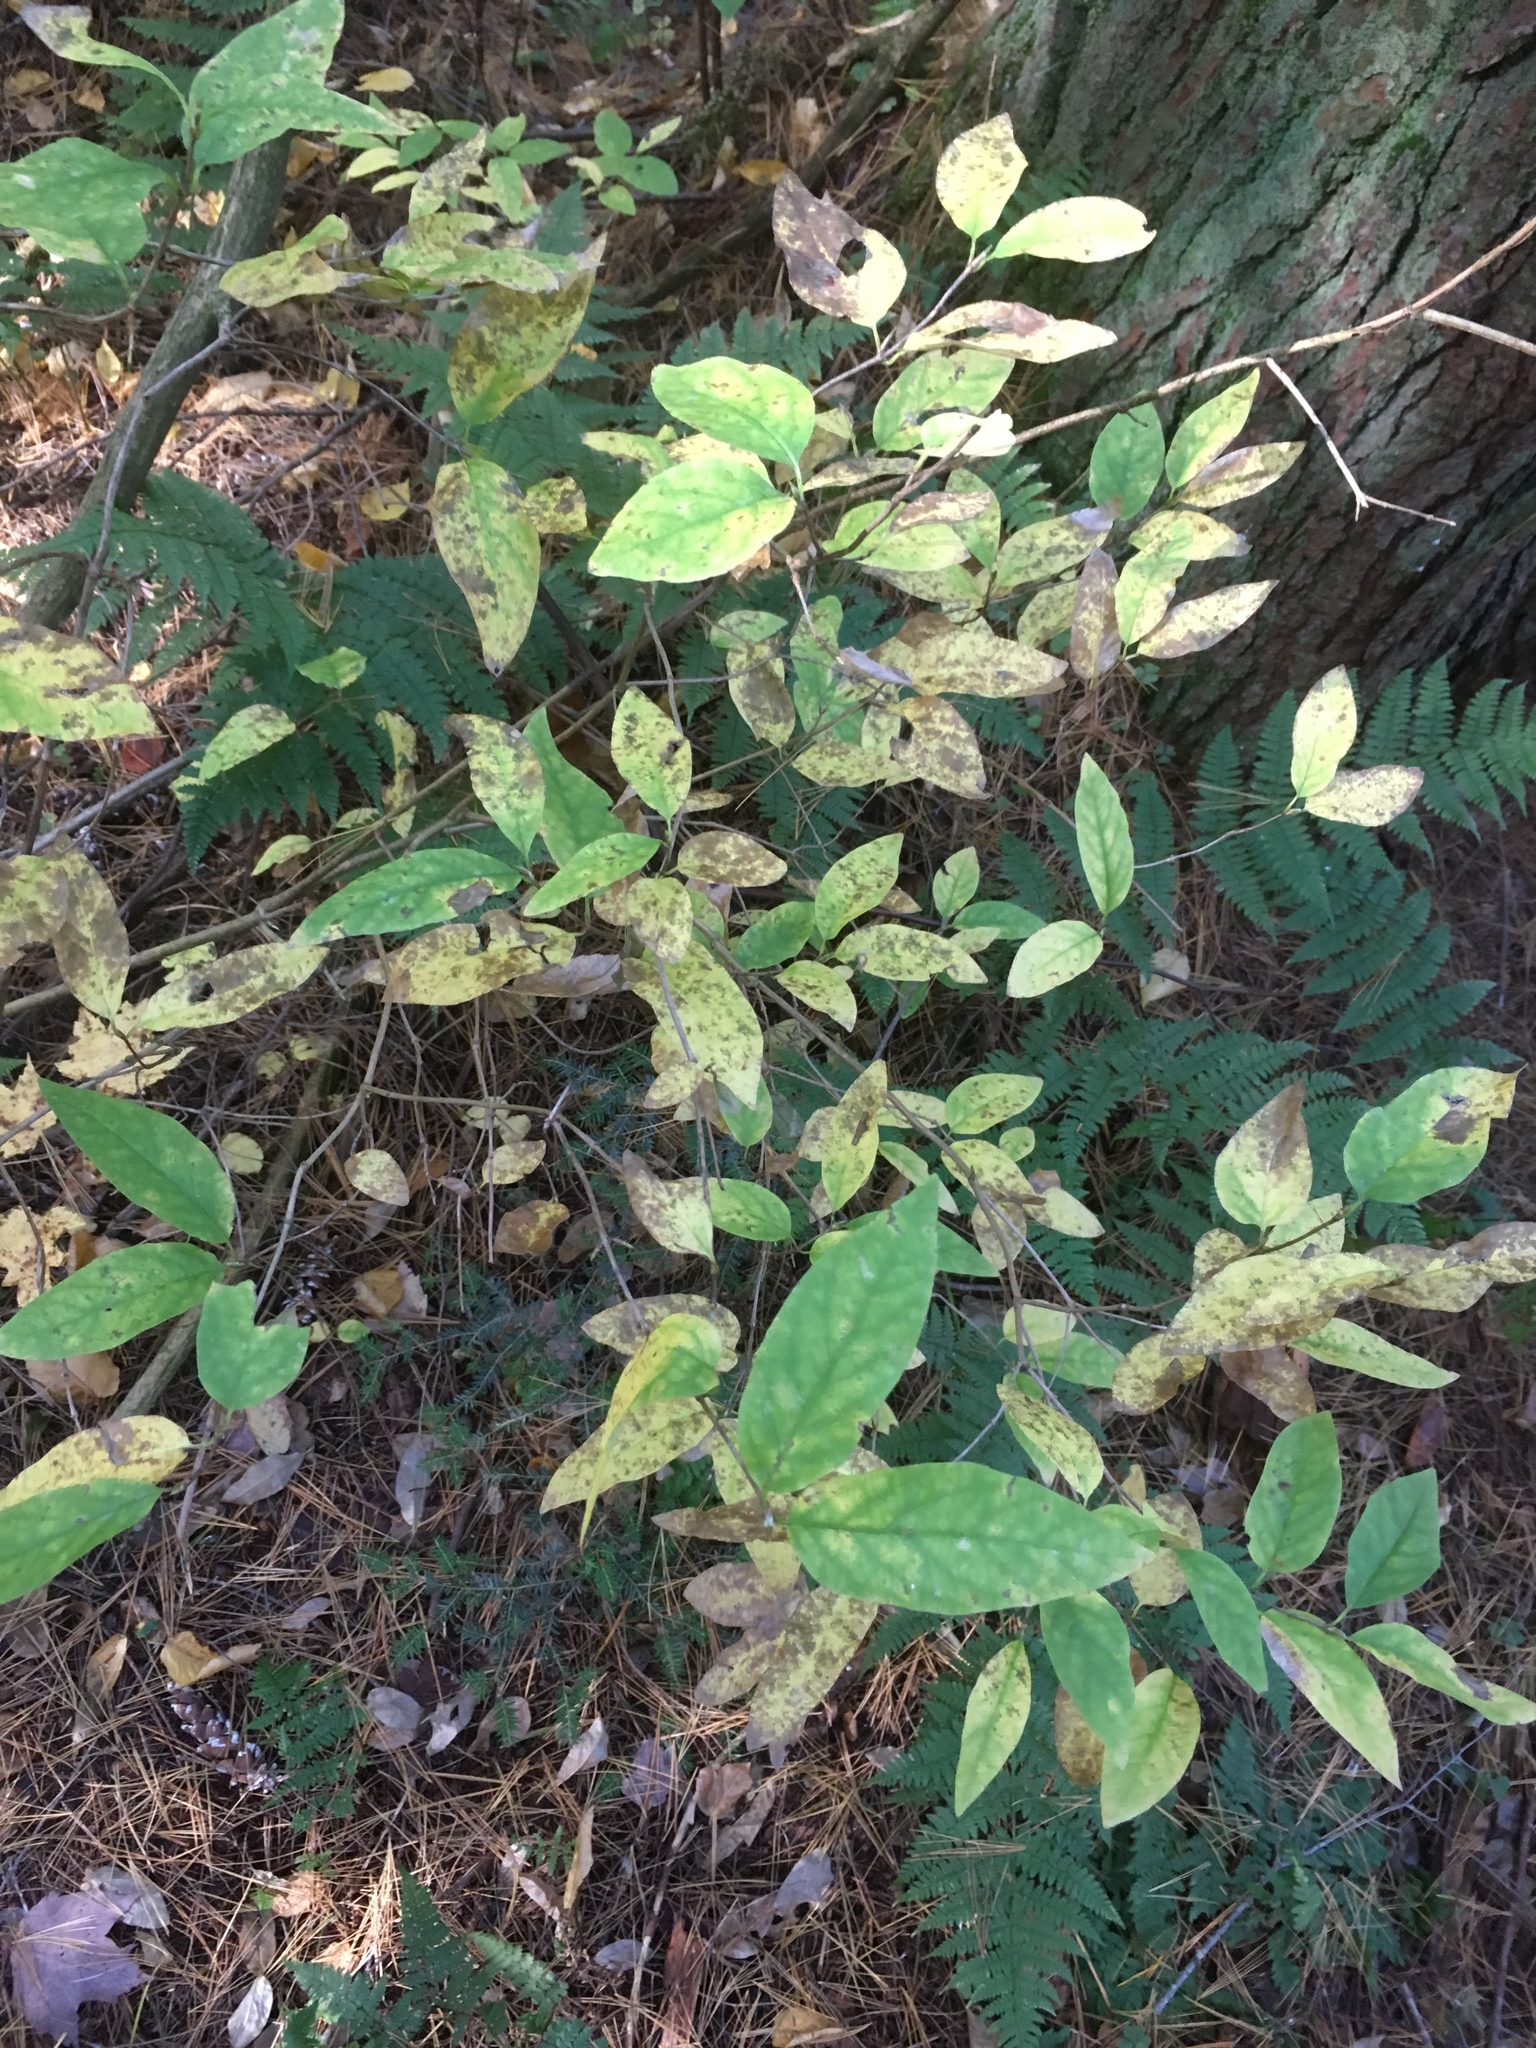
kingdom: Plantae
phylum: Tracheophyta
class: Magnoliopsida
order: Dipsacales
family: Caprifoliaceae
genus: Lonicera
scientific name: Lonicera canadensis
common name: American fly-honeysuckle
